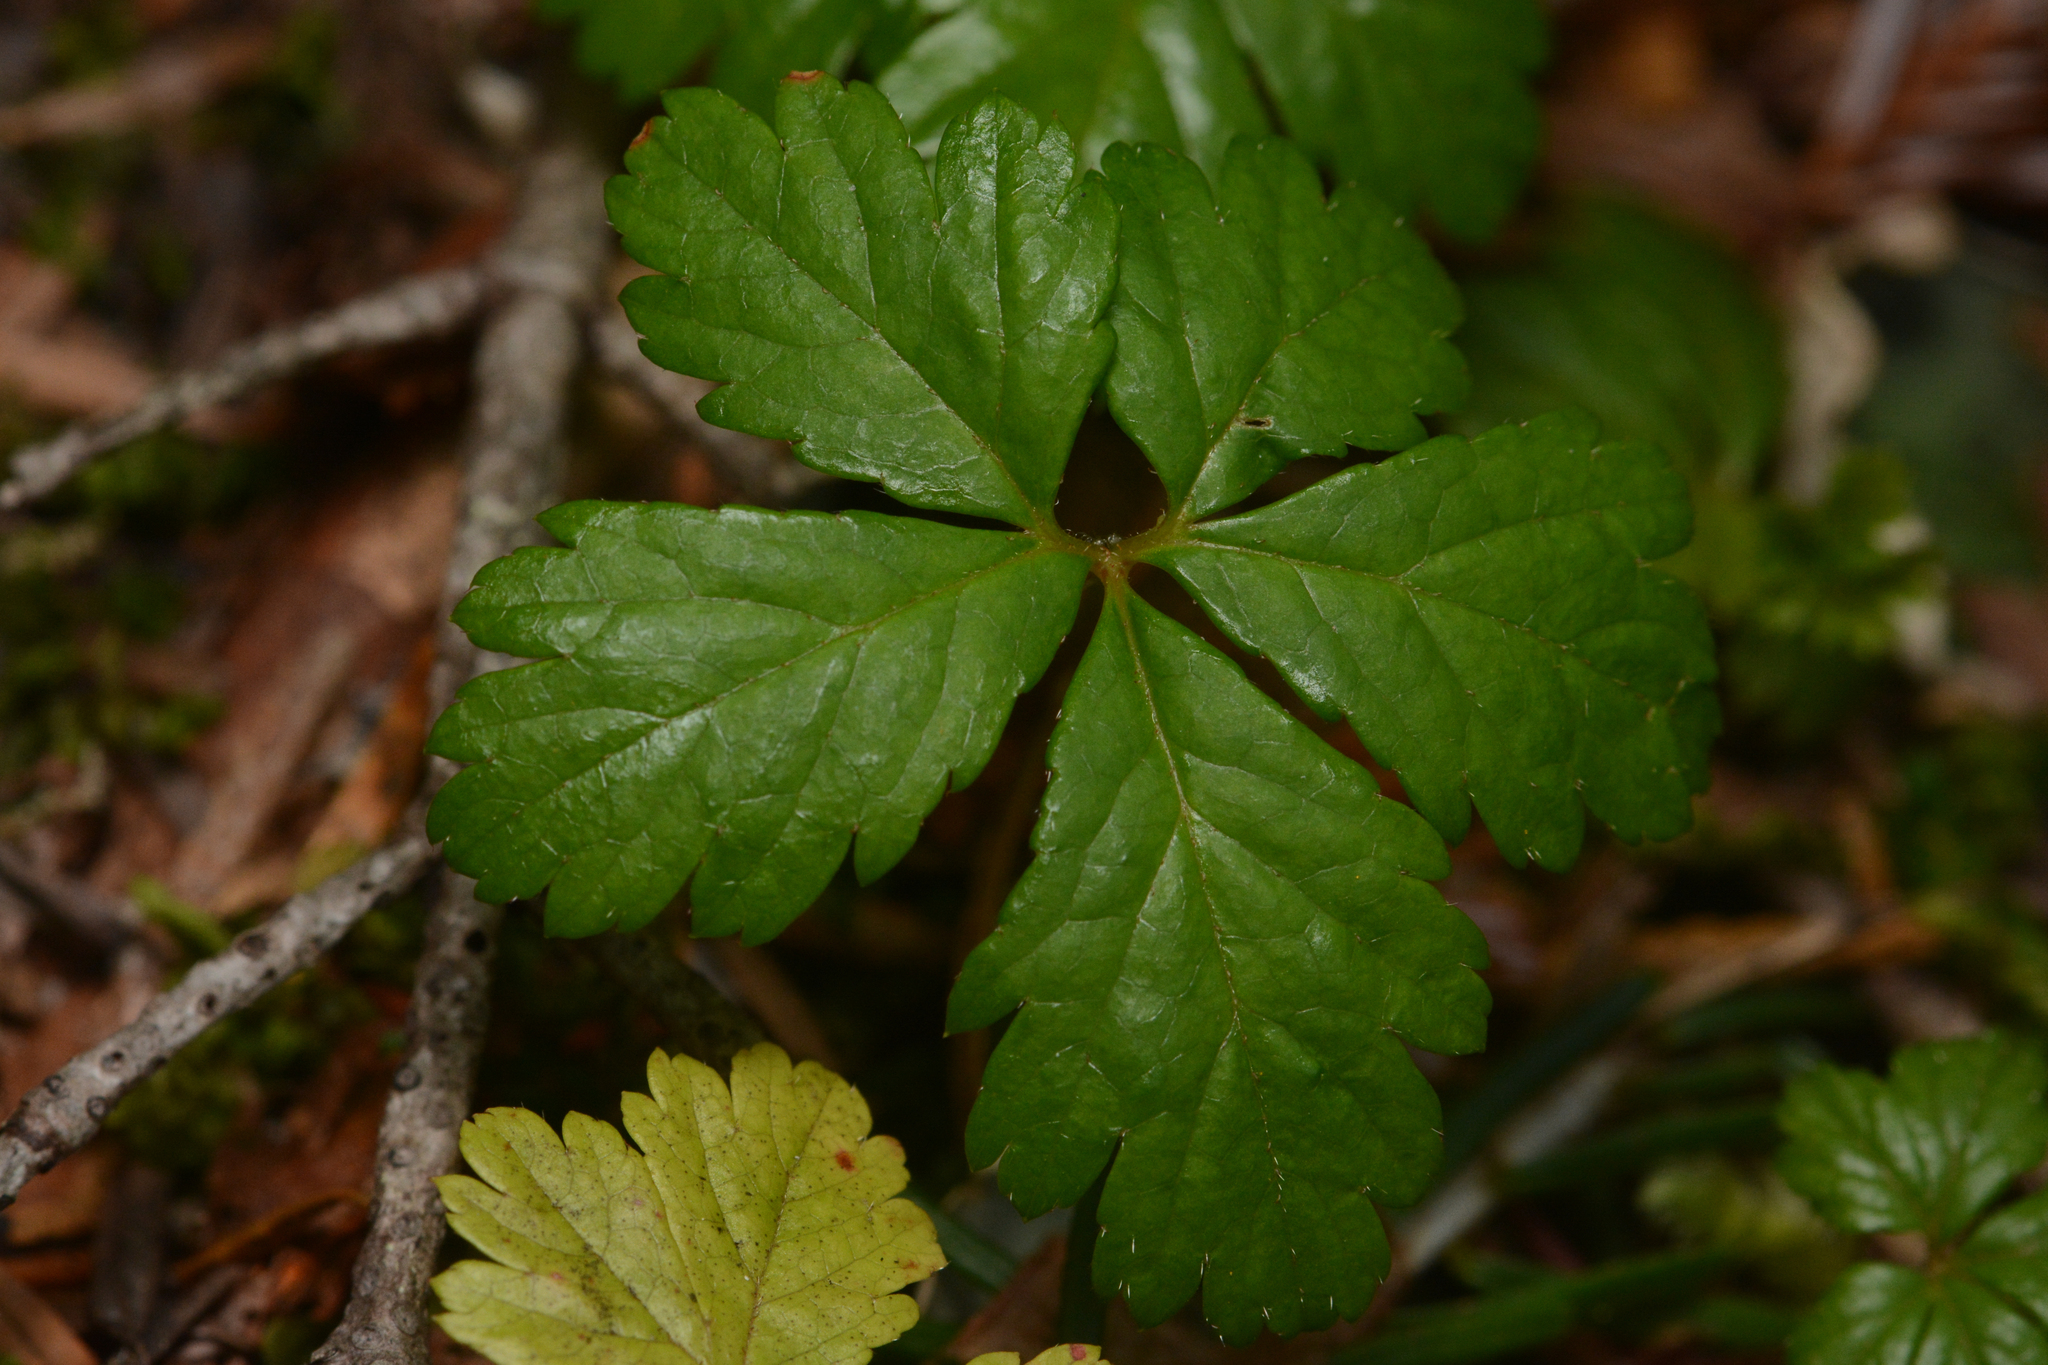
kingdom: Plantae
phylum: Tracheophyta
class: Magnoliopsida
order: Rosales
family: Rosaceae
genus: Rubus
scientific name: Rubus pedatus
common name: Creeping raspberry
